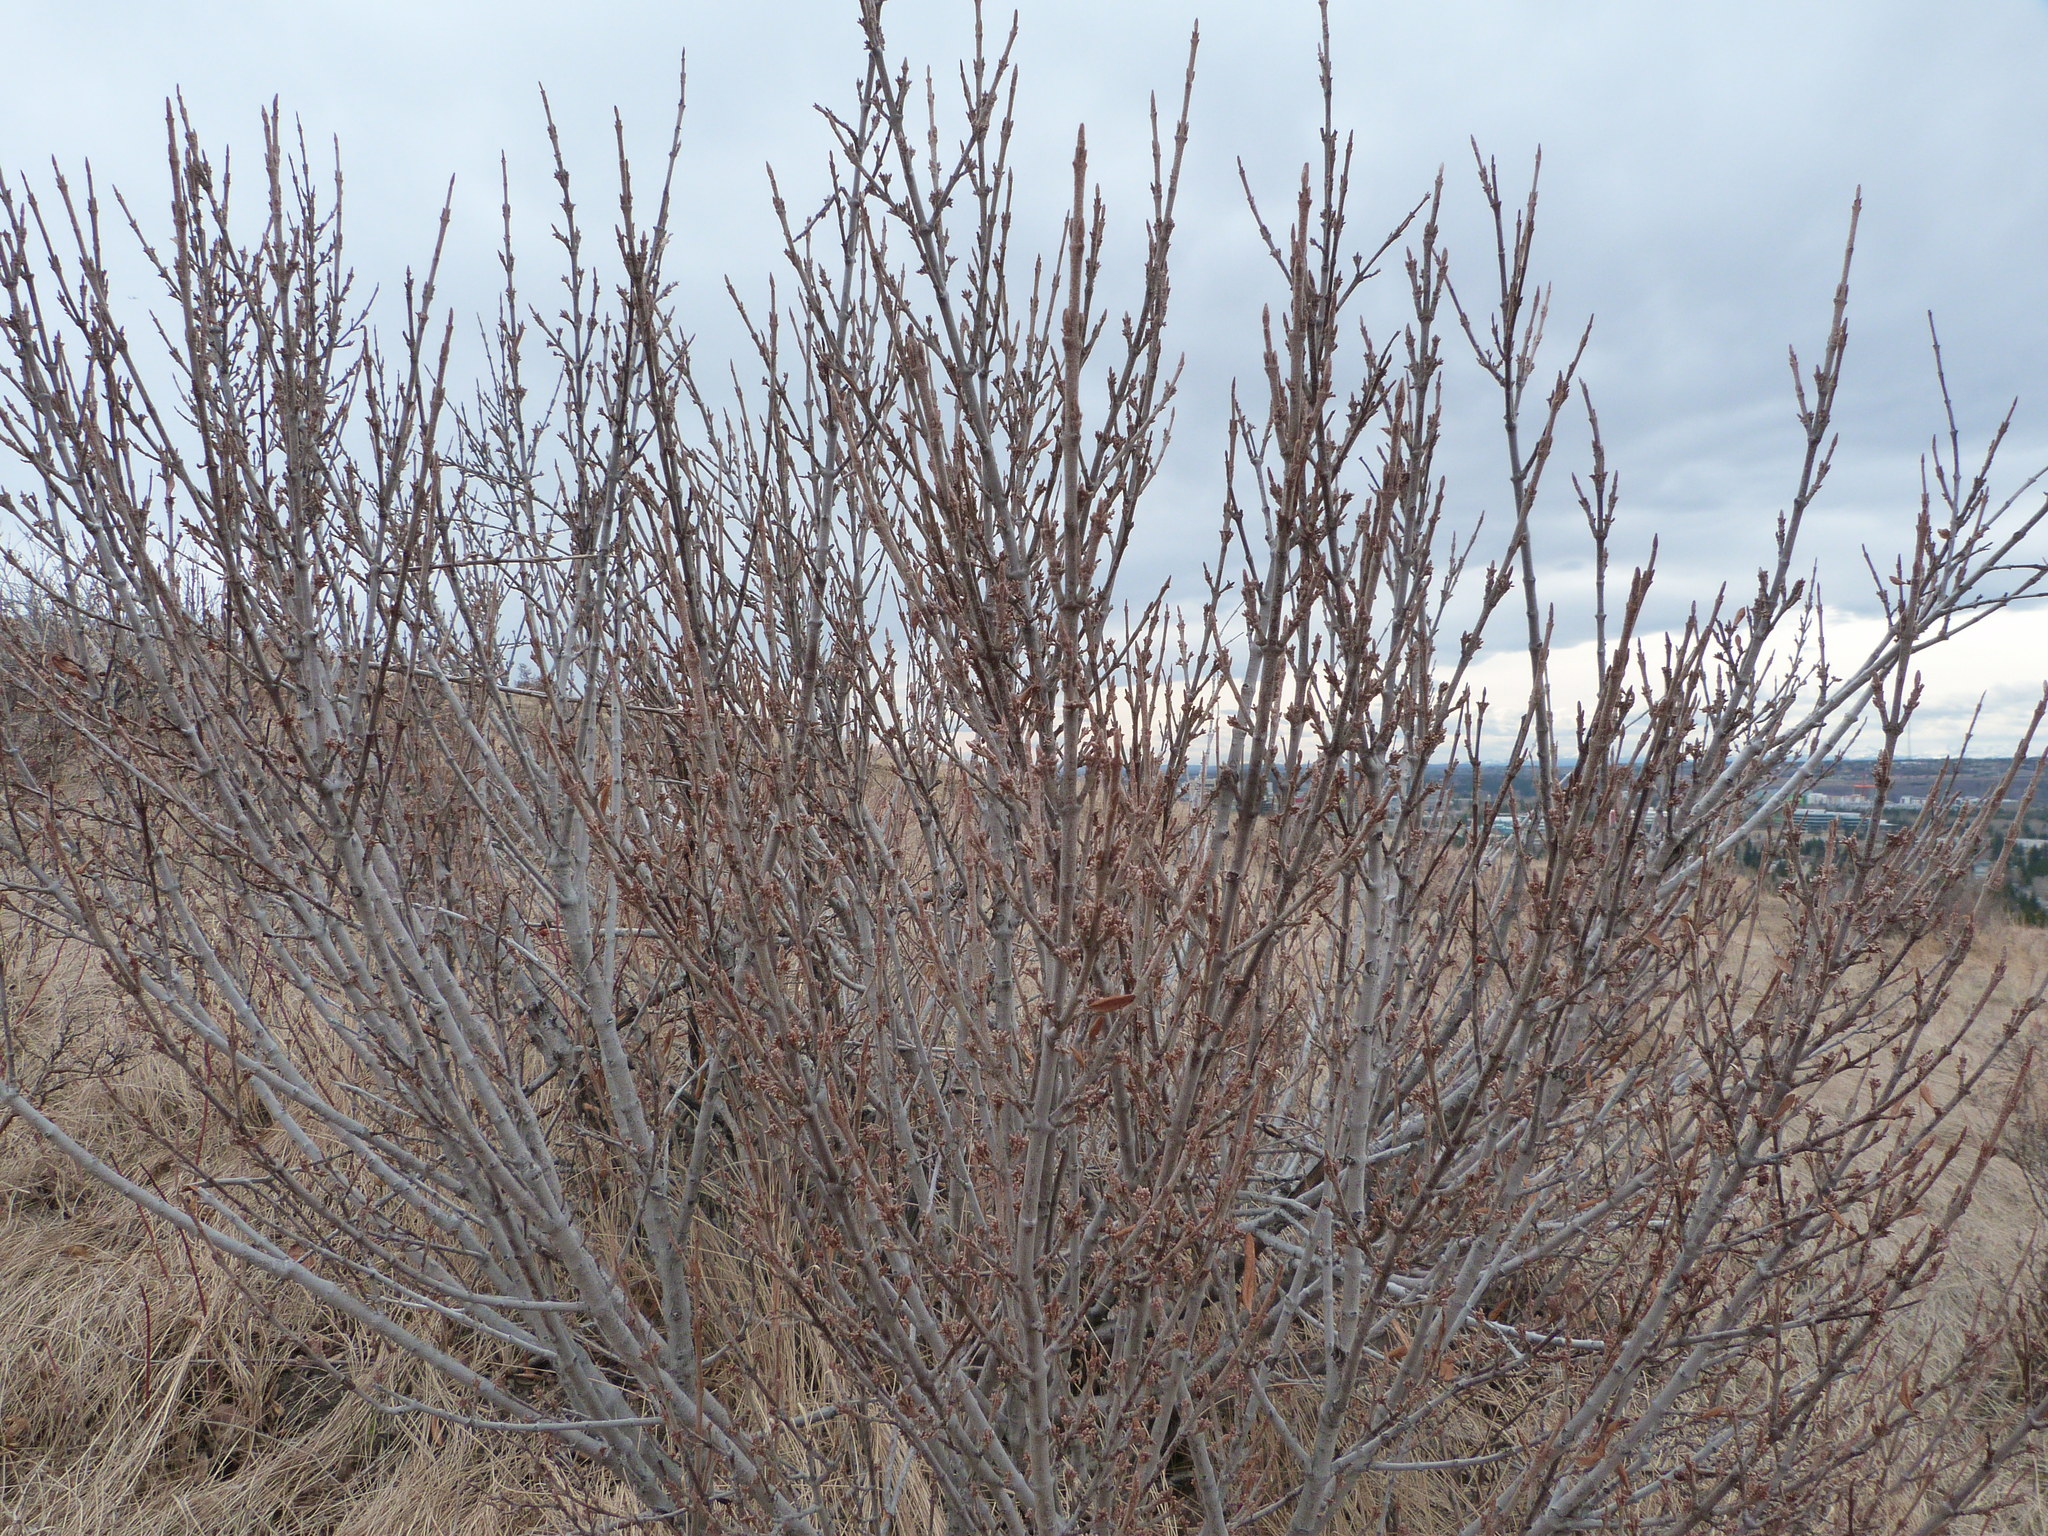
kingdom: Plantae
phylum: Tracheophyta
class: Magnoliopsida
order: Rosales
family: Elaeagnaceae
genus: Shepherdia
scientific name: Shepherdia canadensis
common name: Soapberry
